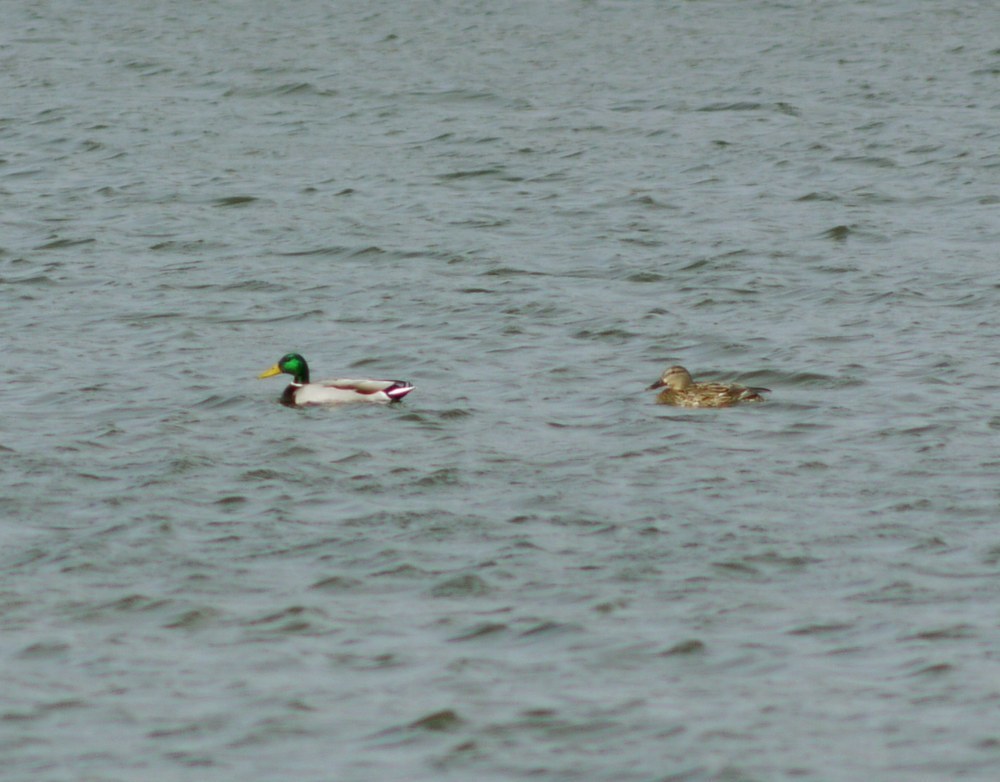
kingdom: Animalia
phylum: Chordata
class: Aves
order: Anseriformes
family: Anatidae
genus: Anas
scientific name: Anas platyrhynchos
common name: Mallard
